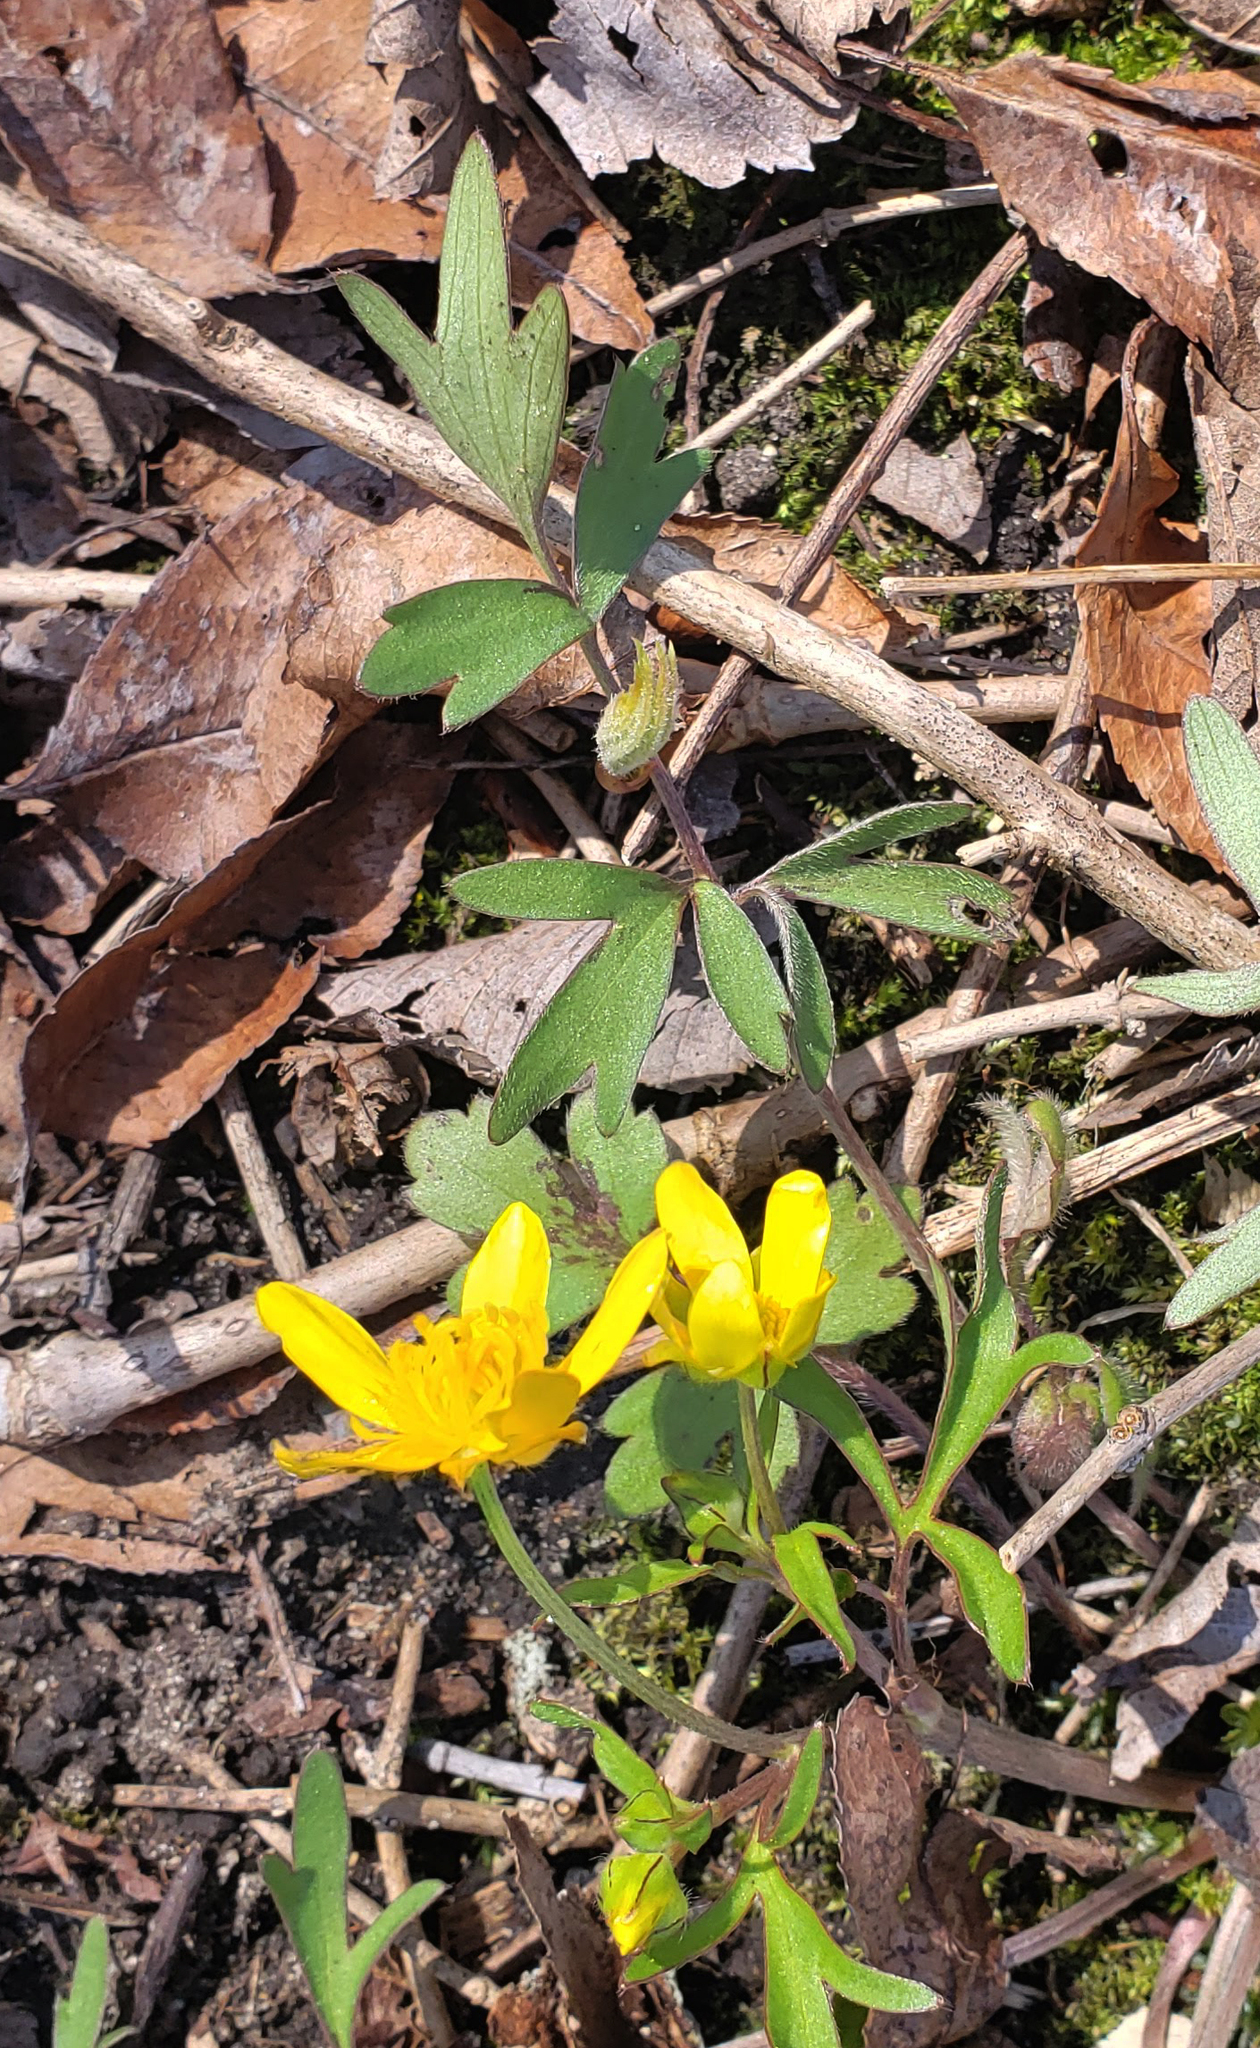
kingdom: Plantae
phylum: Tracheophyta
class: Magnoliopsida
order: Ranunculales
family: Ranunculaceae
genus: Ranunculus
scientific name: Ranunculus fascicularis
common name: Early buttercup
